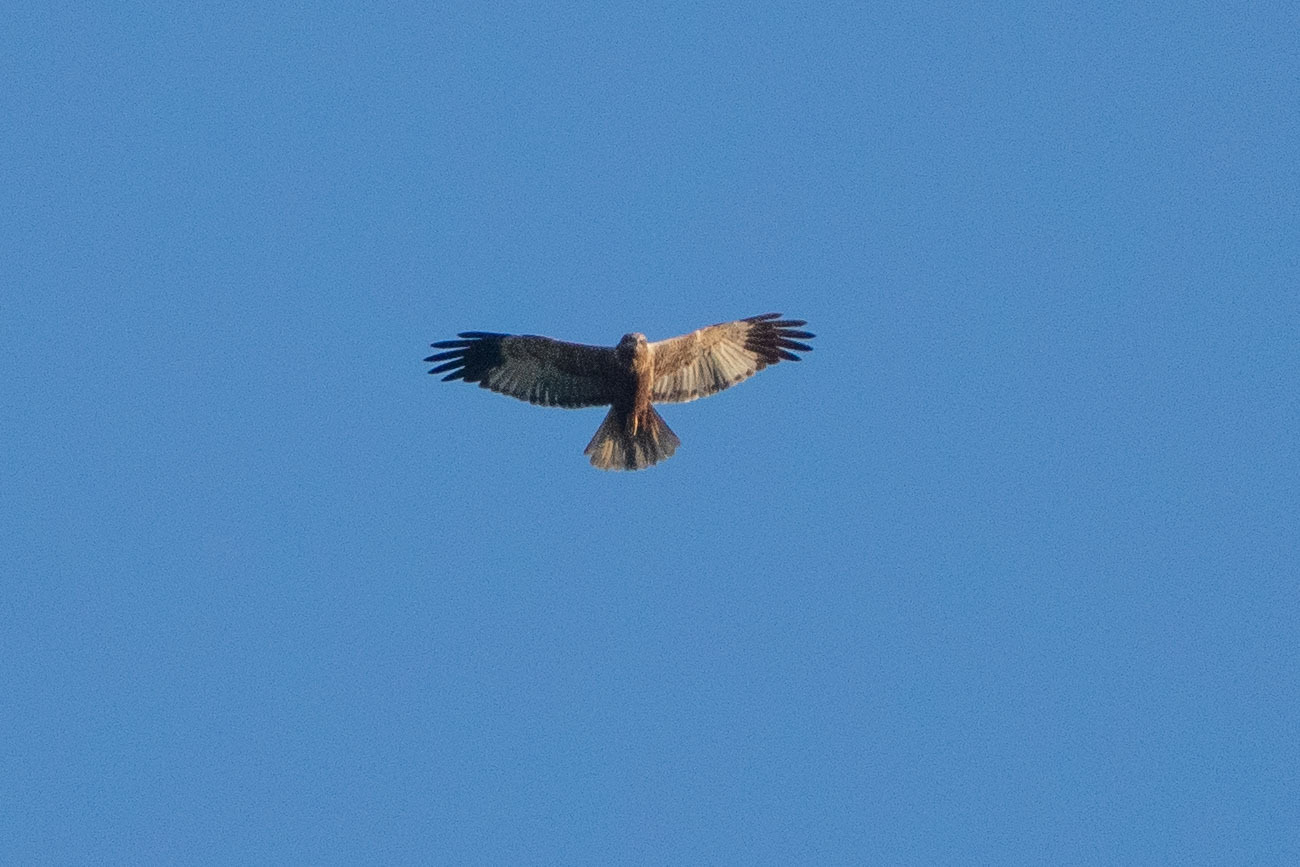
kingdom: Animalia
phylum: Chordata
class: Aves
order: Accipitriformes
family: Accipitridae
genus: Circus
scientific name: Circus aeruginosus
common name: Western marsh harrier
